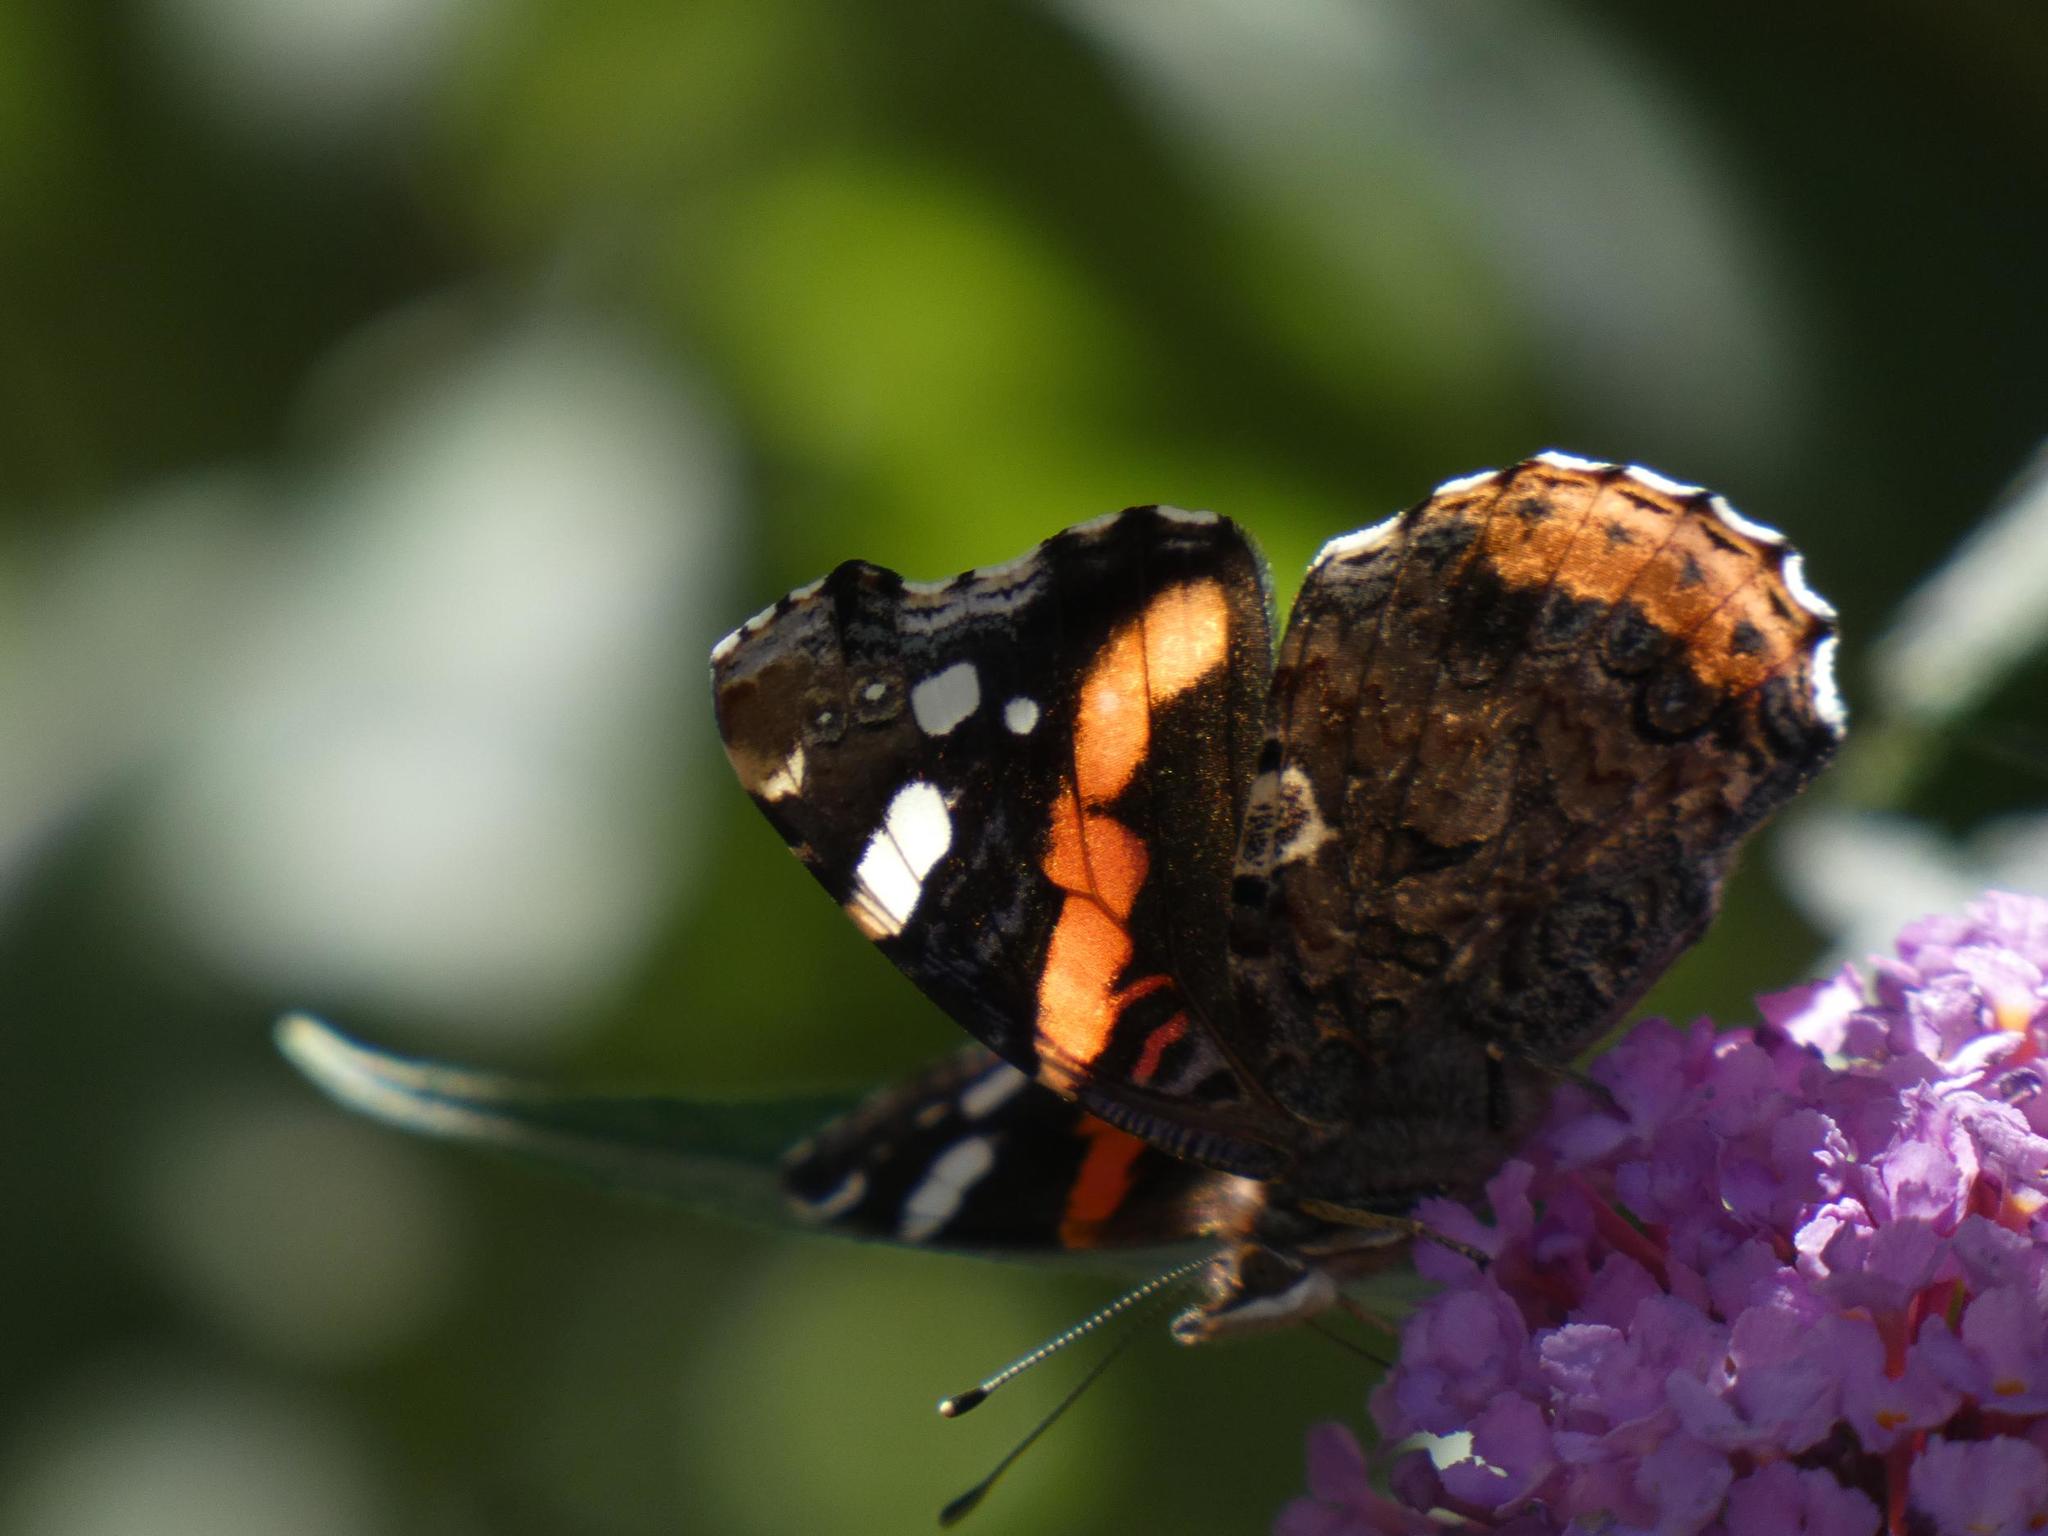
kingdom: Animalia
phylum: Arthropoda
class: Insecta
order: Lepidoptera
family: Nymphalidae
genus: Vanessa
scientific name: Vanessa atalanta
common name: Red admiral
